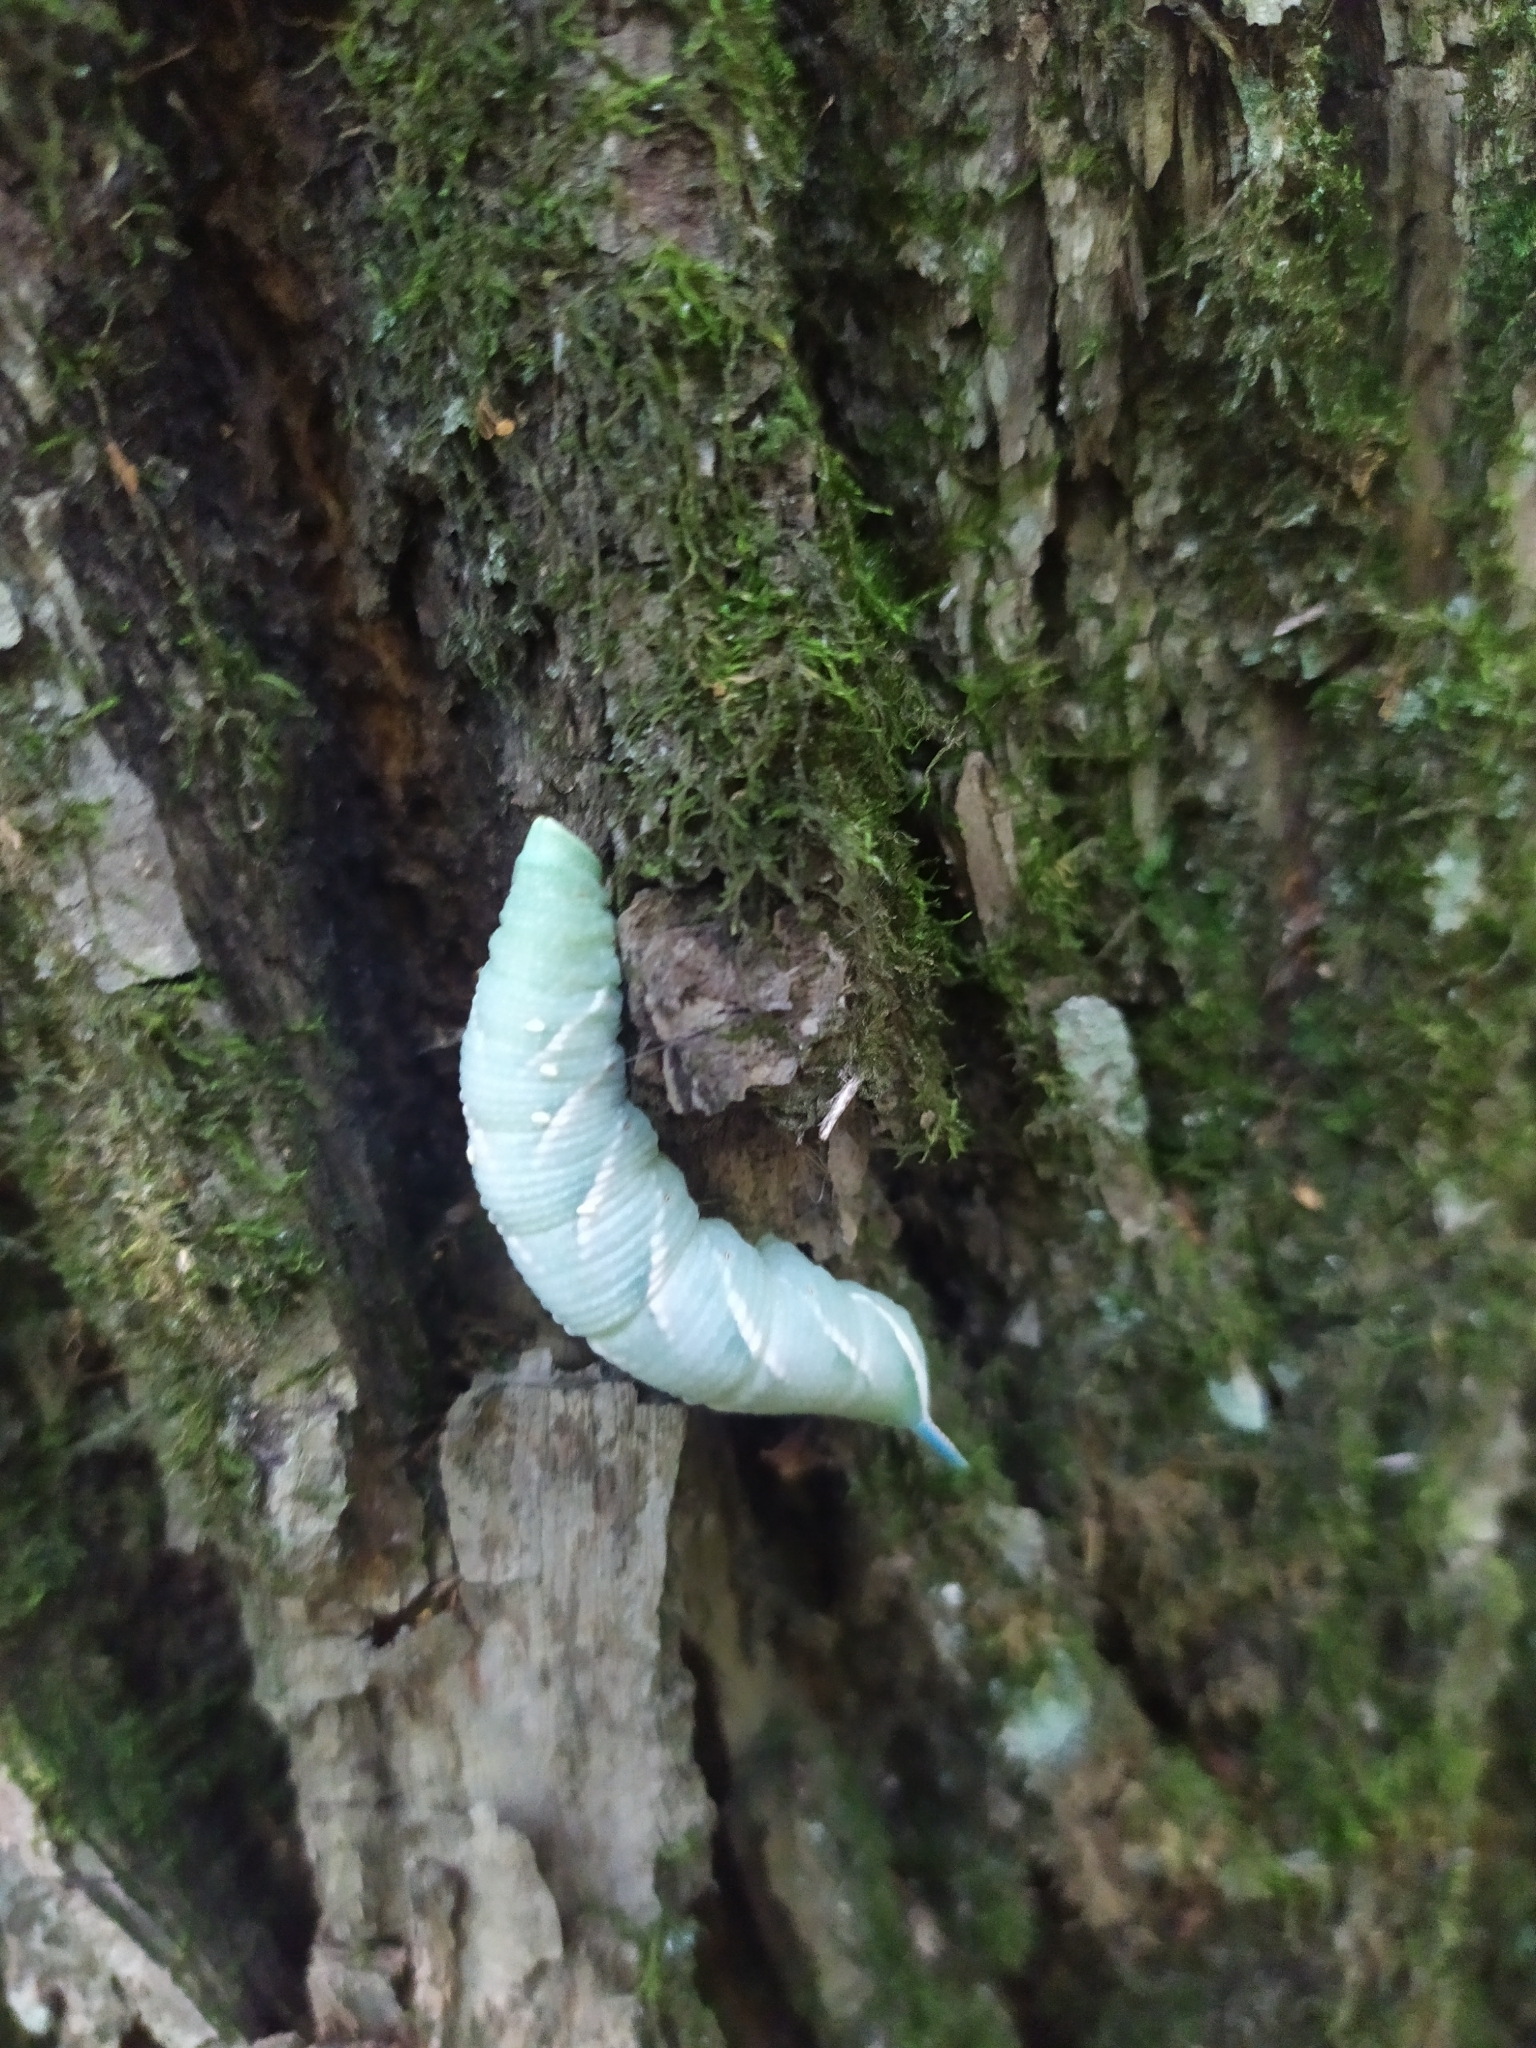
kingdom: Animalia
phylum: Arthropoda
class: Insecta
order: Lepidoptera
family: Sphingidae
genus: Mimas
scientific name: Mimas tiliae
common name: Lime hawk-moth
